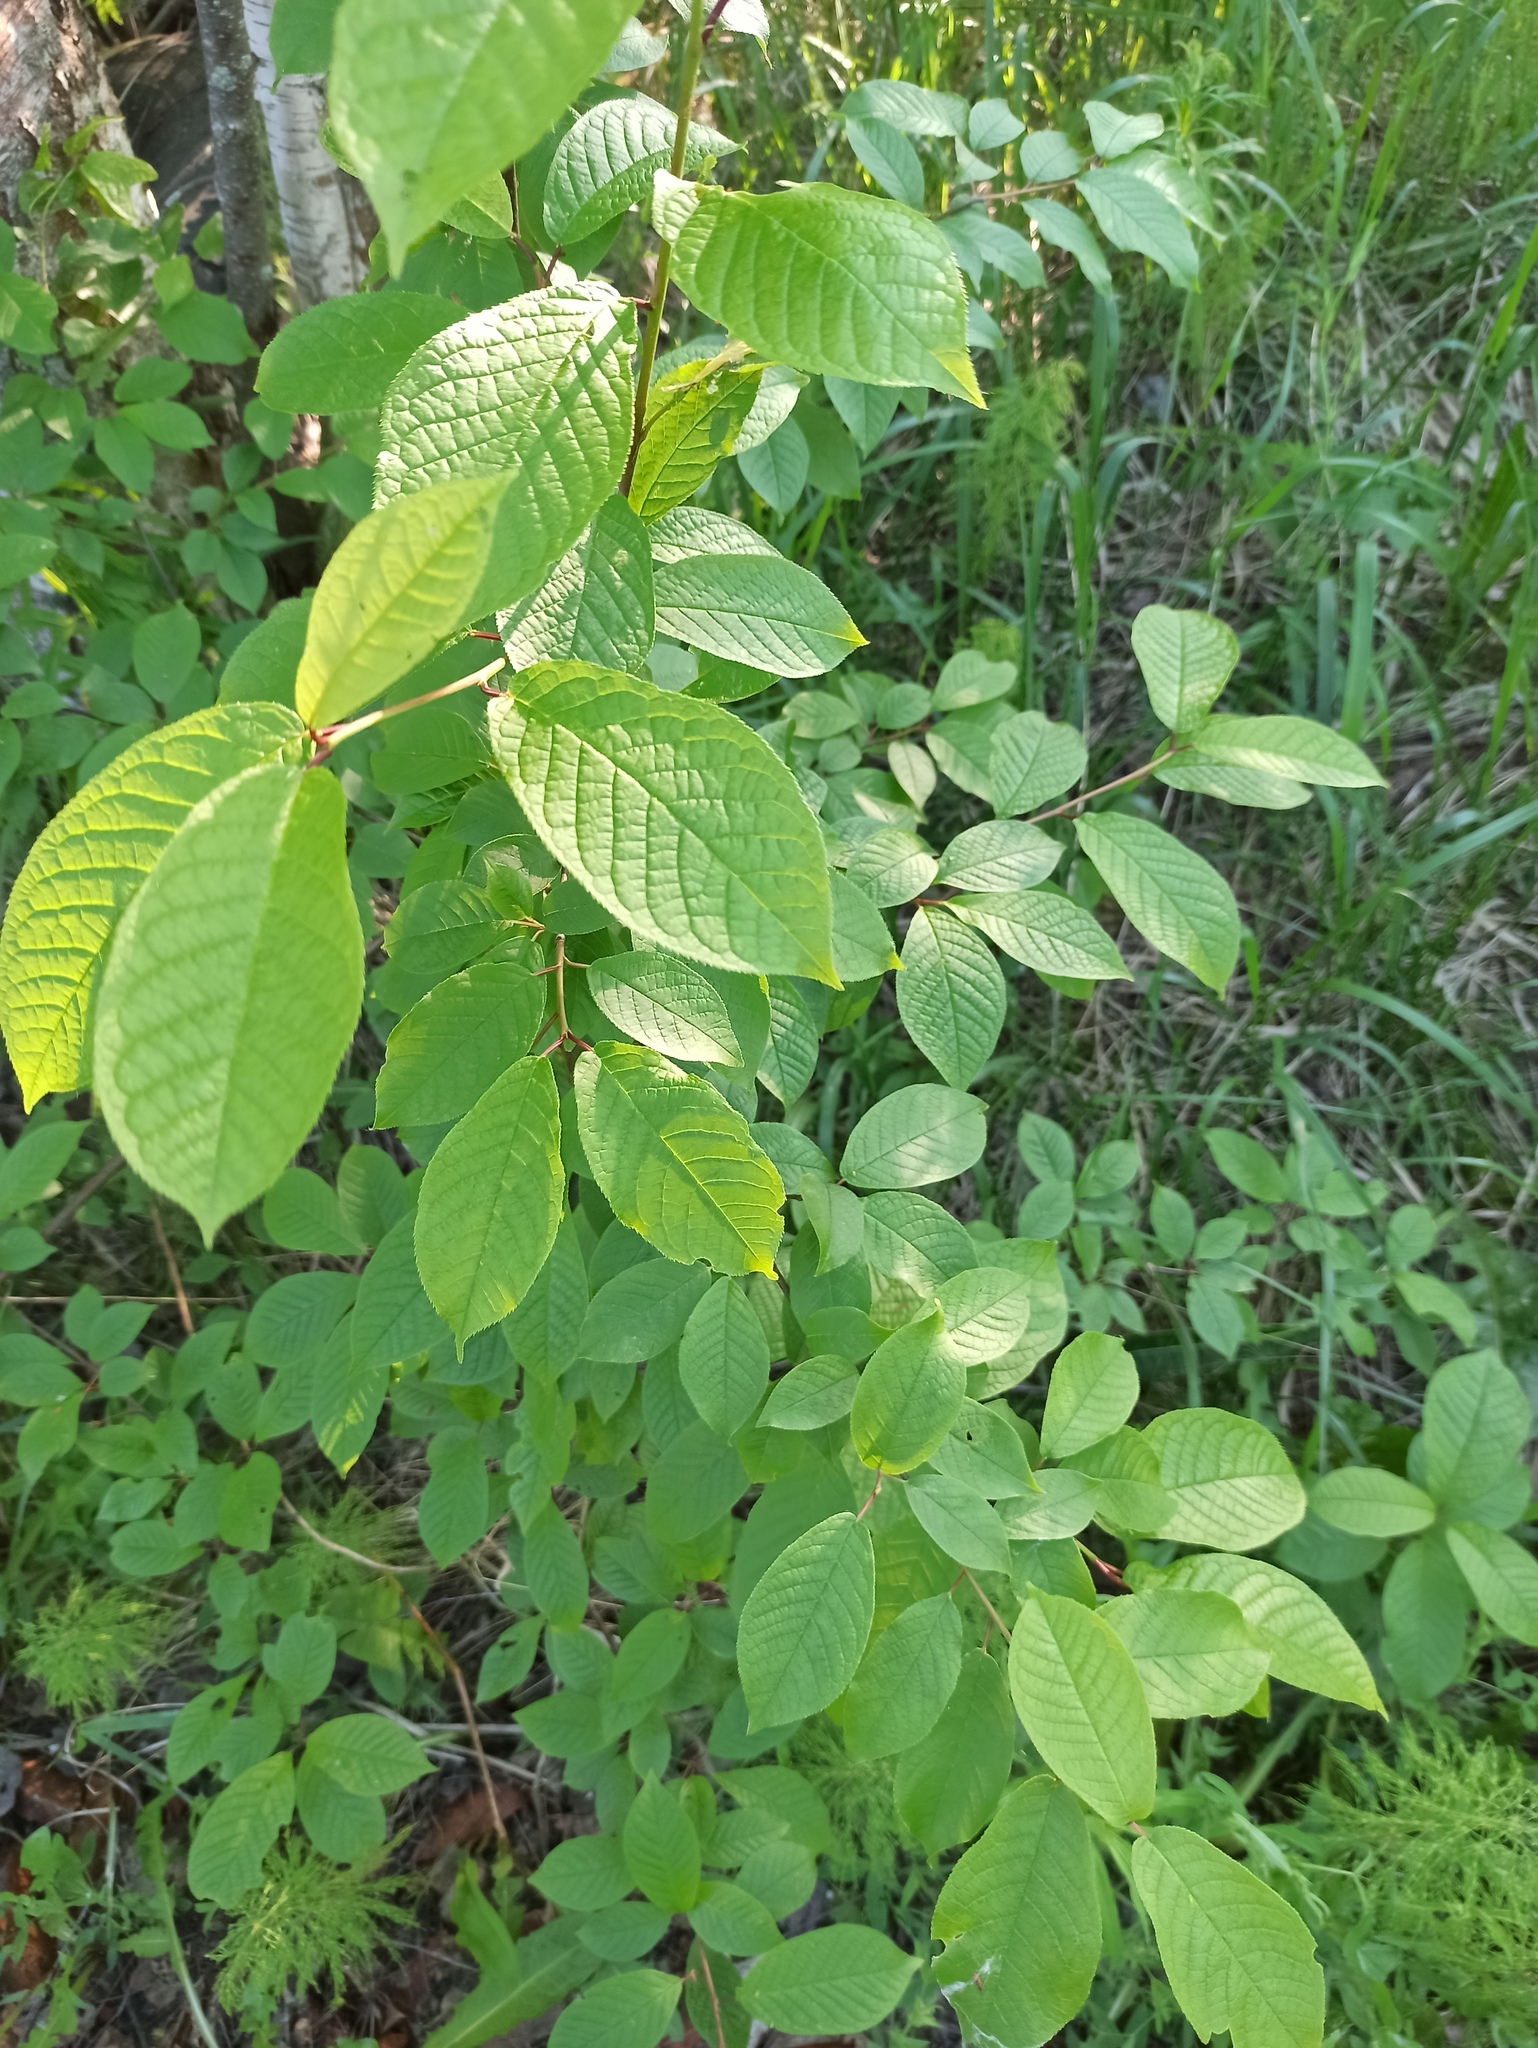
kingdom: Plantae
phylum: Tracheophyta
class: Magnoliopsida
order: Rosales
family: Rosaceae
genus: Prunus
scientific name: Prunus padus
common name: Bird cherry
